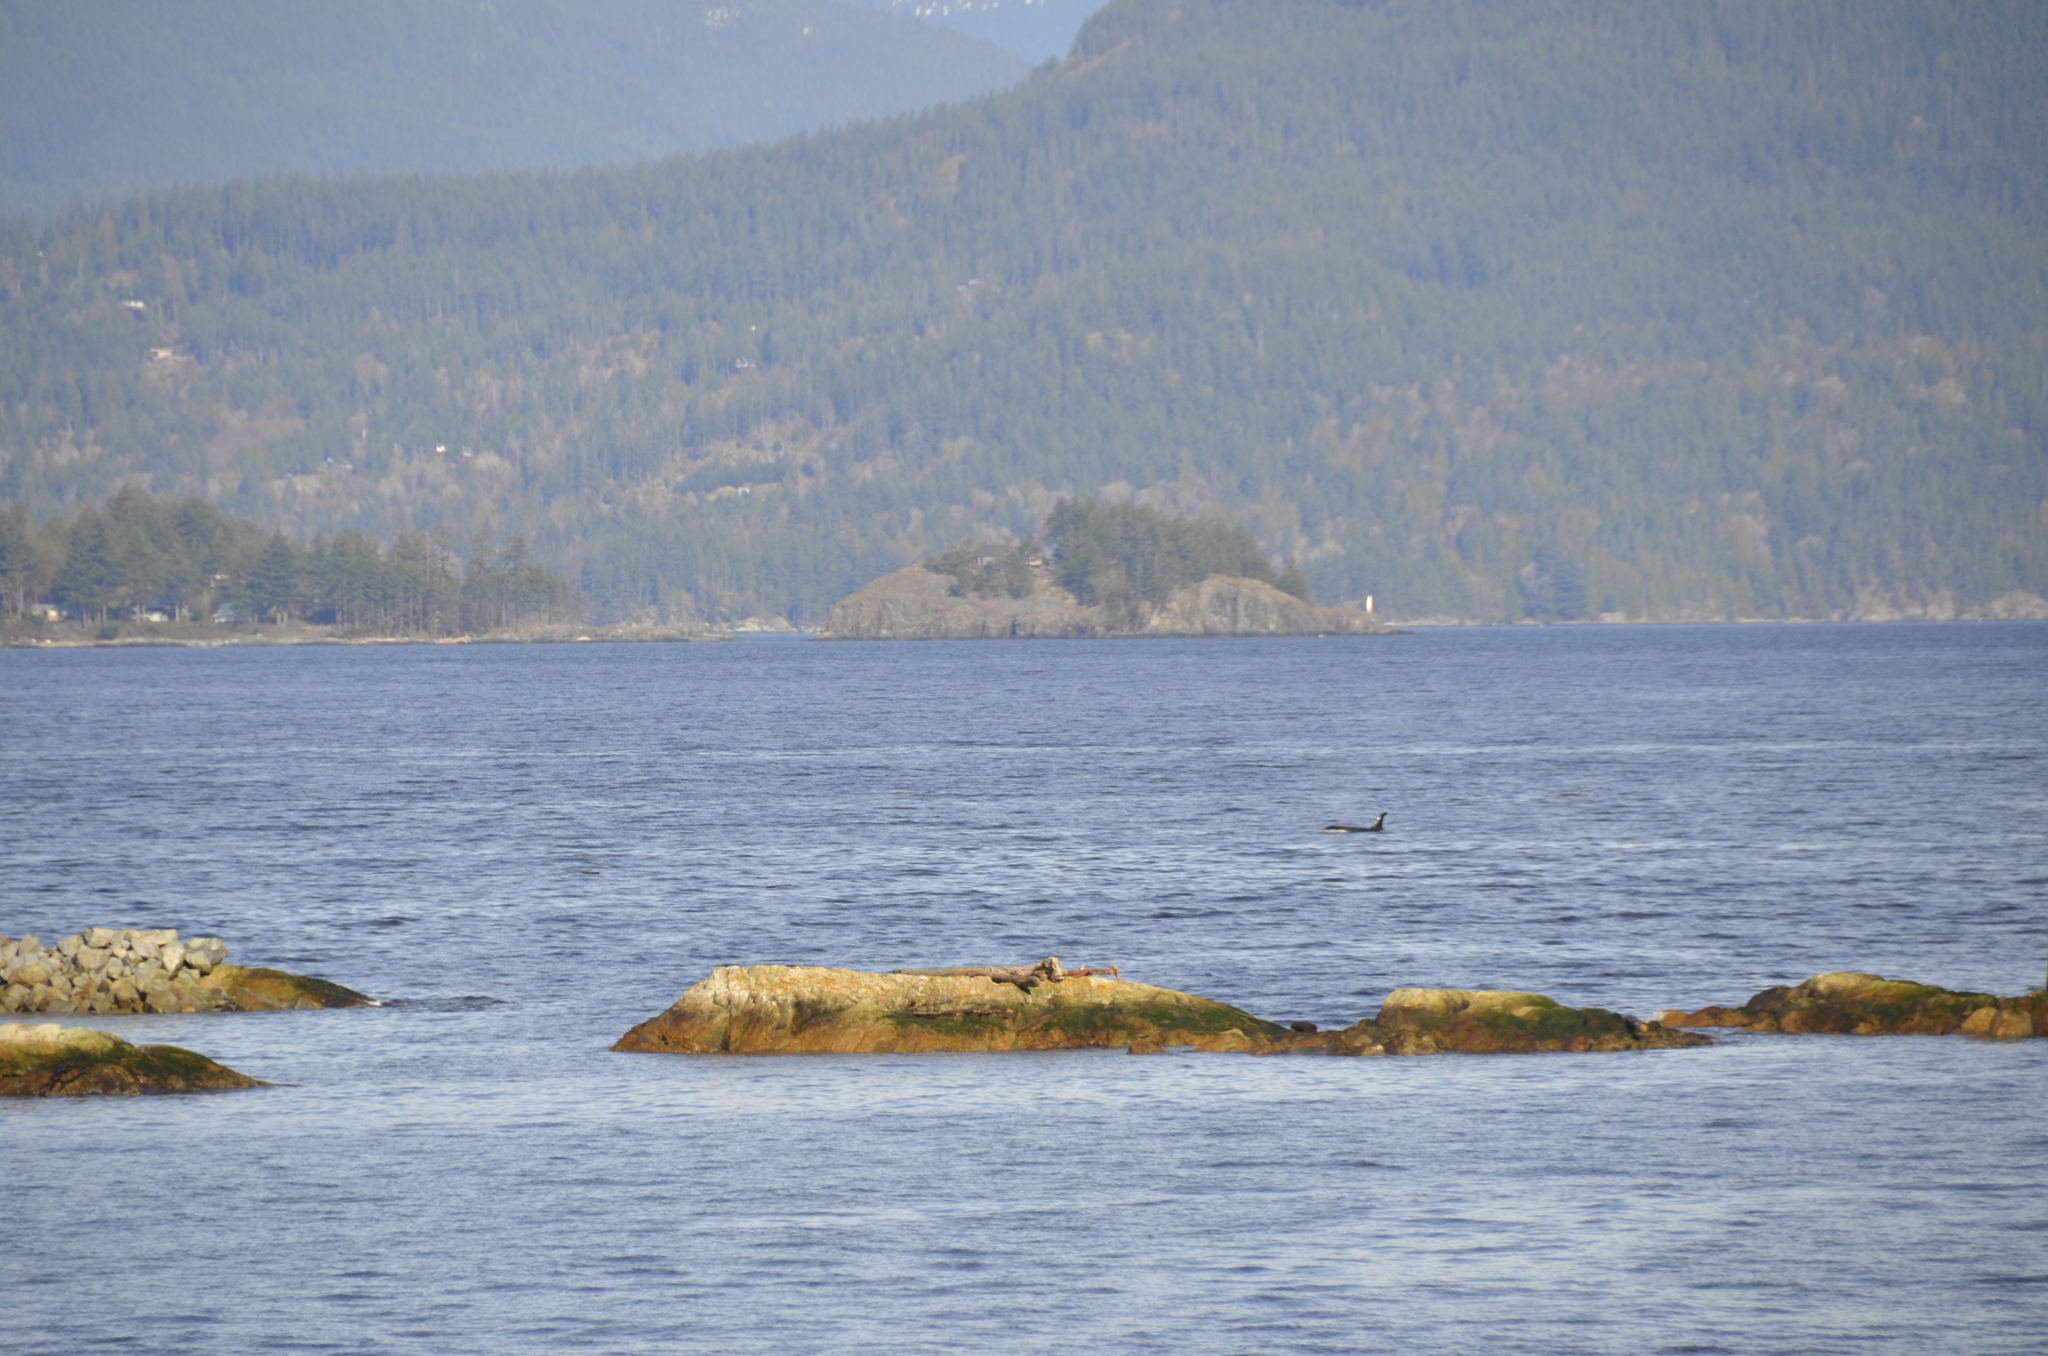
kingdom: Animalia
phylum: Chordata
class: Mammalia
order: Cetacea
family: Delphinidae
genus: Orcinus
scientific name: Orcinus orca
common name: Killer whale
